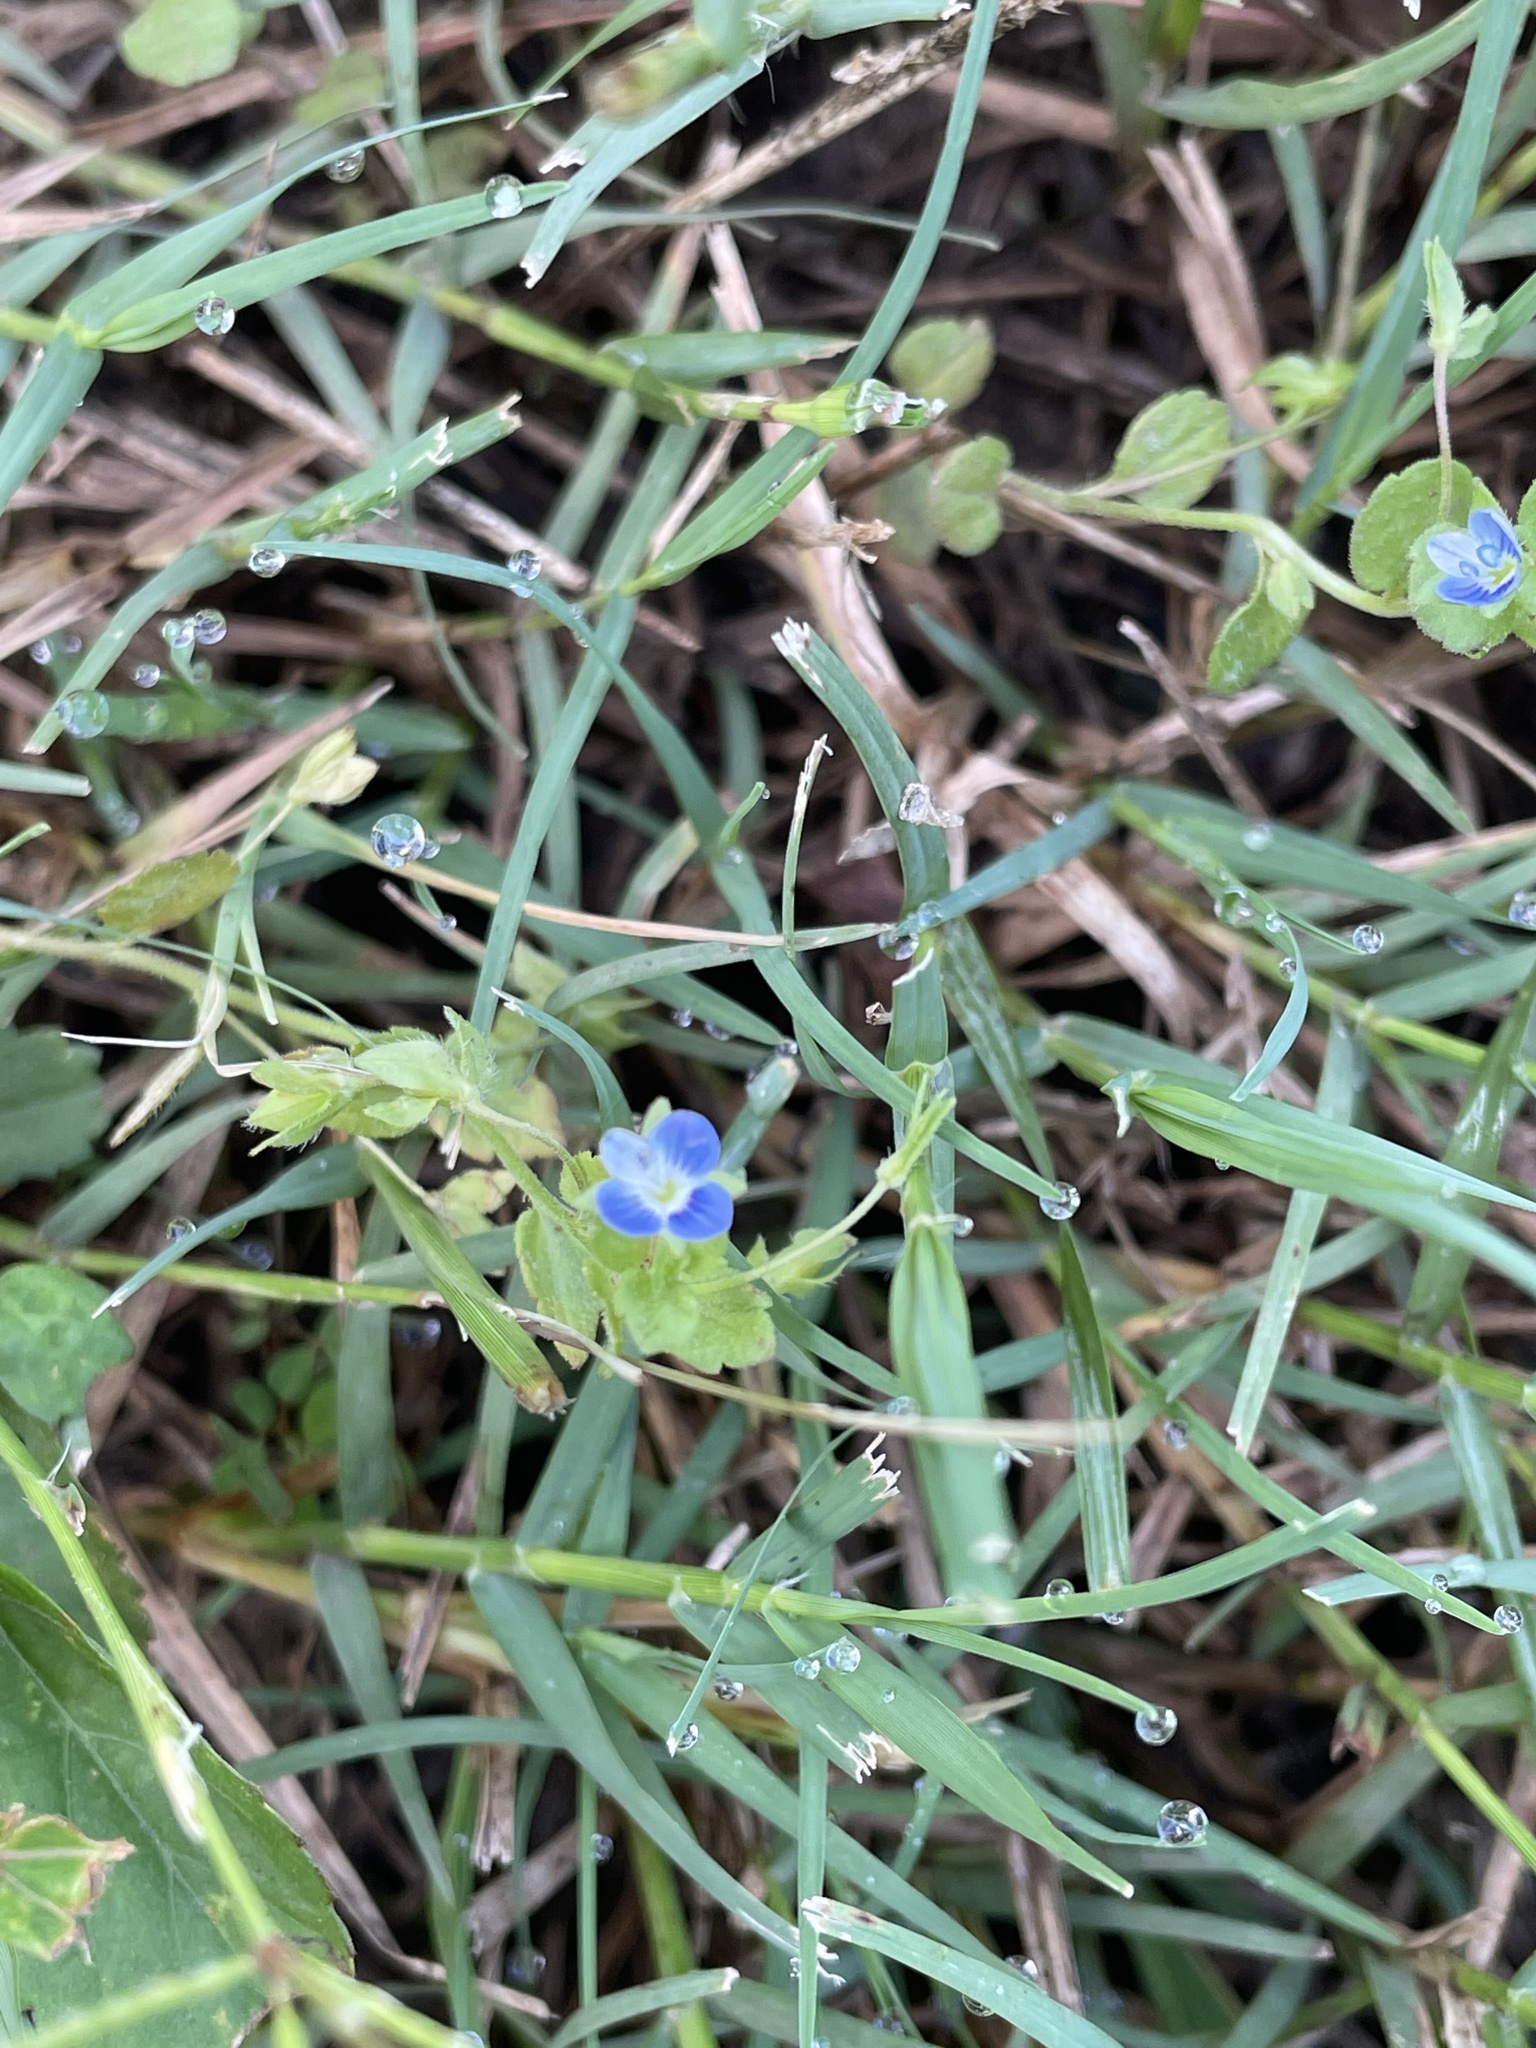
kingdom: Plantae
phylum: Tracheophyta
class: Magnoliopsida
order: Lamiales
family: Plantaginaceae
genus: Veronica
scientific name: Veronica persica
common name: Common field-speedwell
